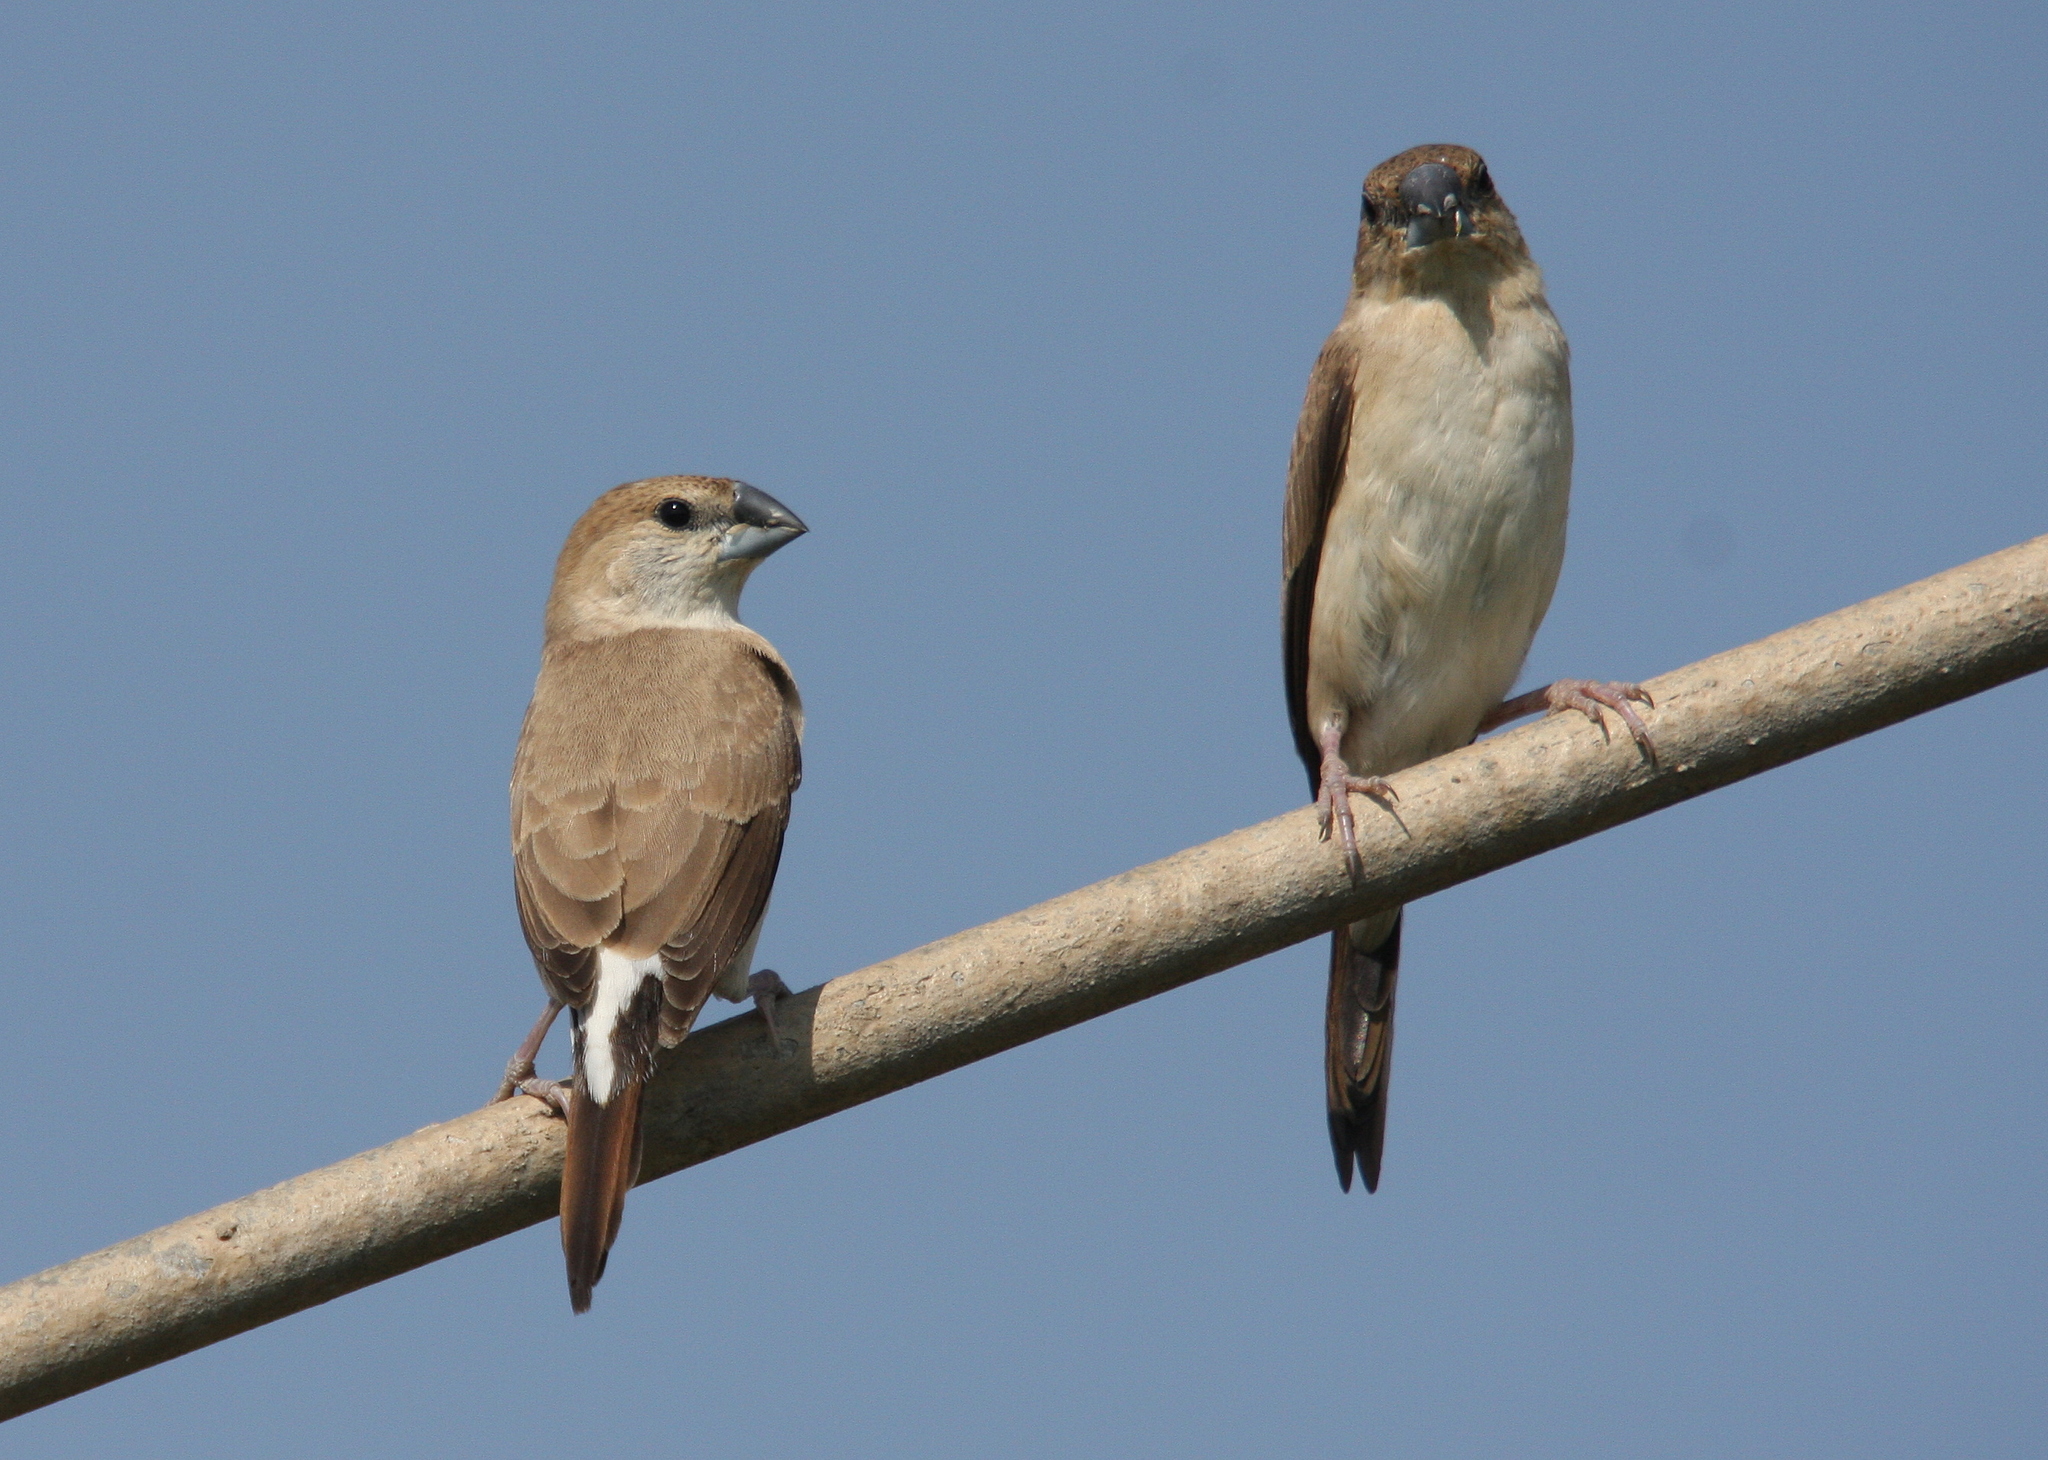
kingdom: Animalia
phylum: Chordata
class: Aves
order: Passeriformes
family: Estrildidae
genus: Euodice
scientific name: Euodice malabarica
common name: Indian silverbill
